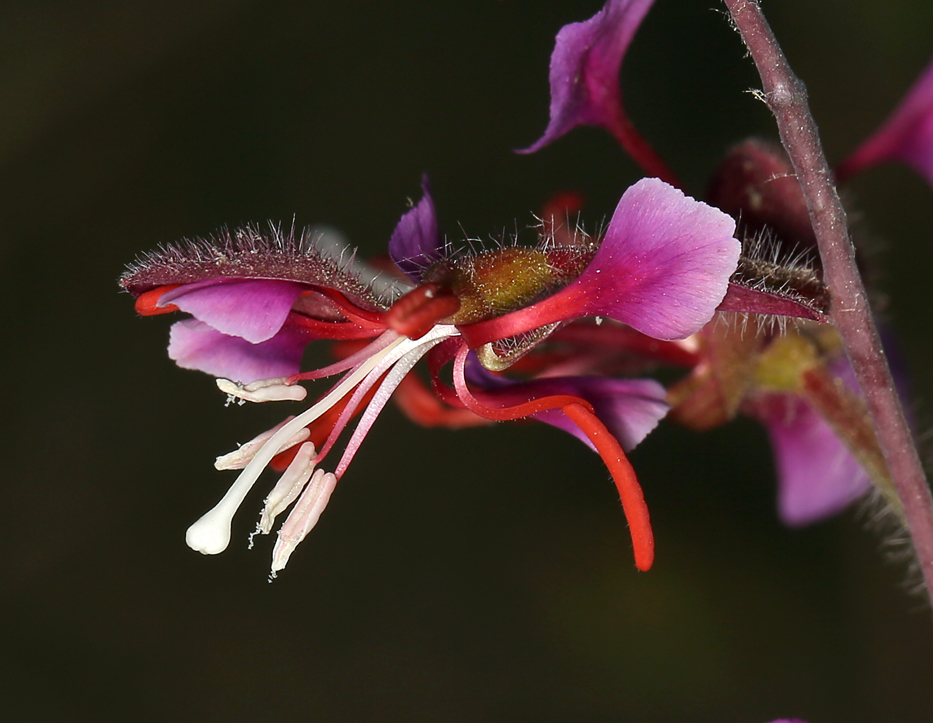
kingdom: Plantae
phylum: Tracheophyta
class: Magnoliopsida
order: Myrtales
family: Onagraceae
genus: Clarkia
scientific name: Clarkia unguiculata
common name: Clarkia
